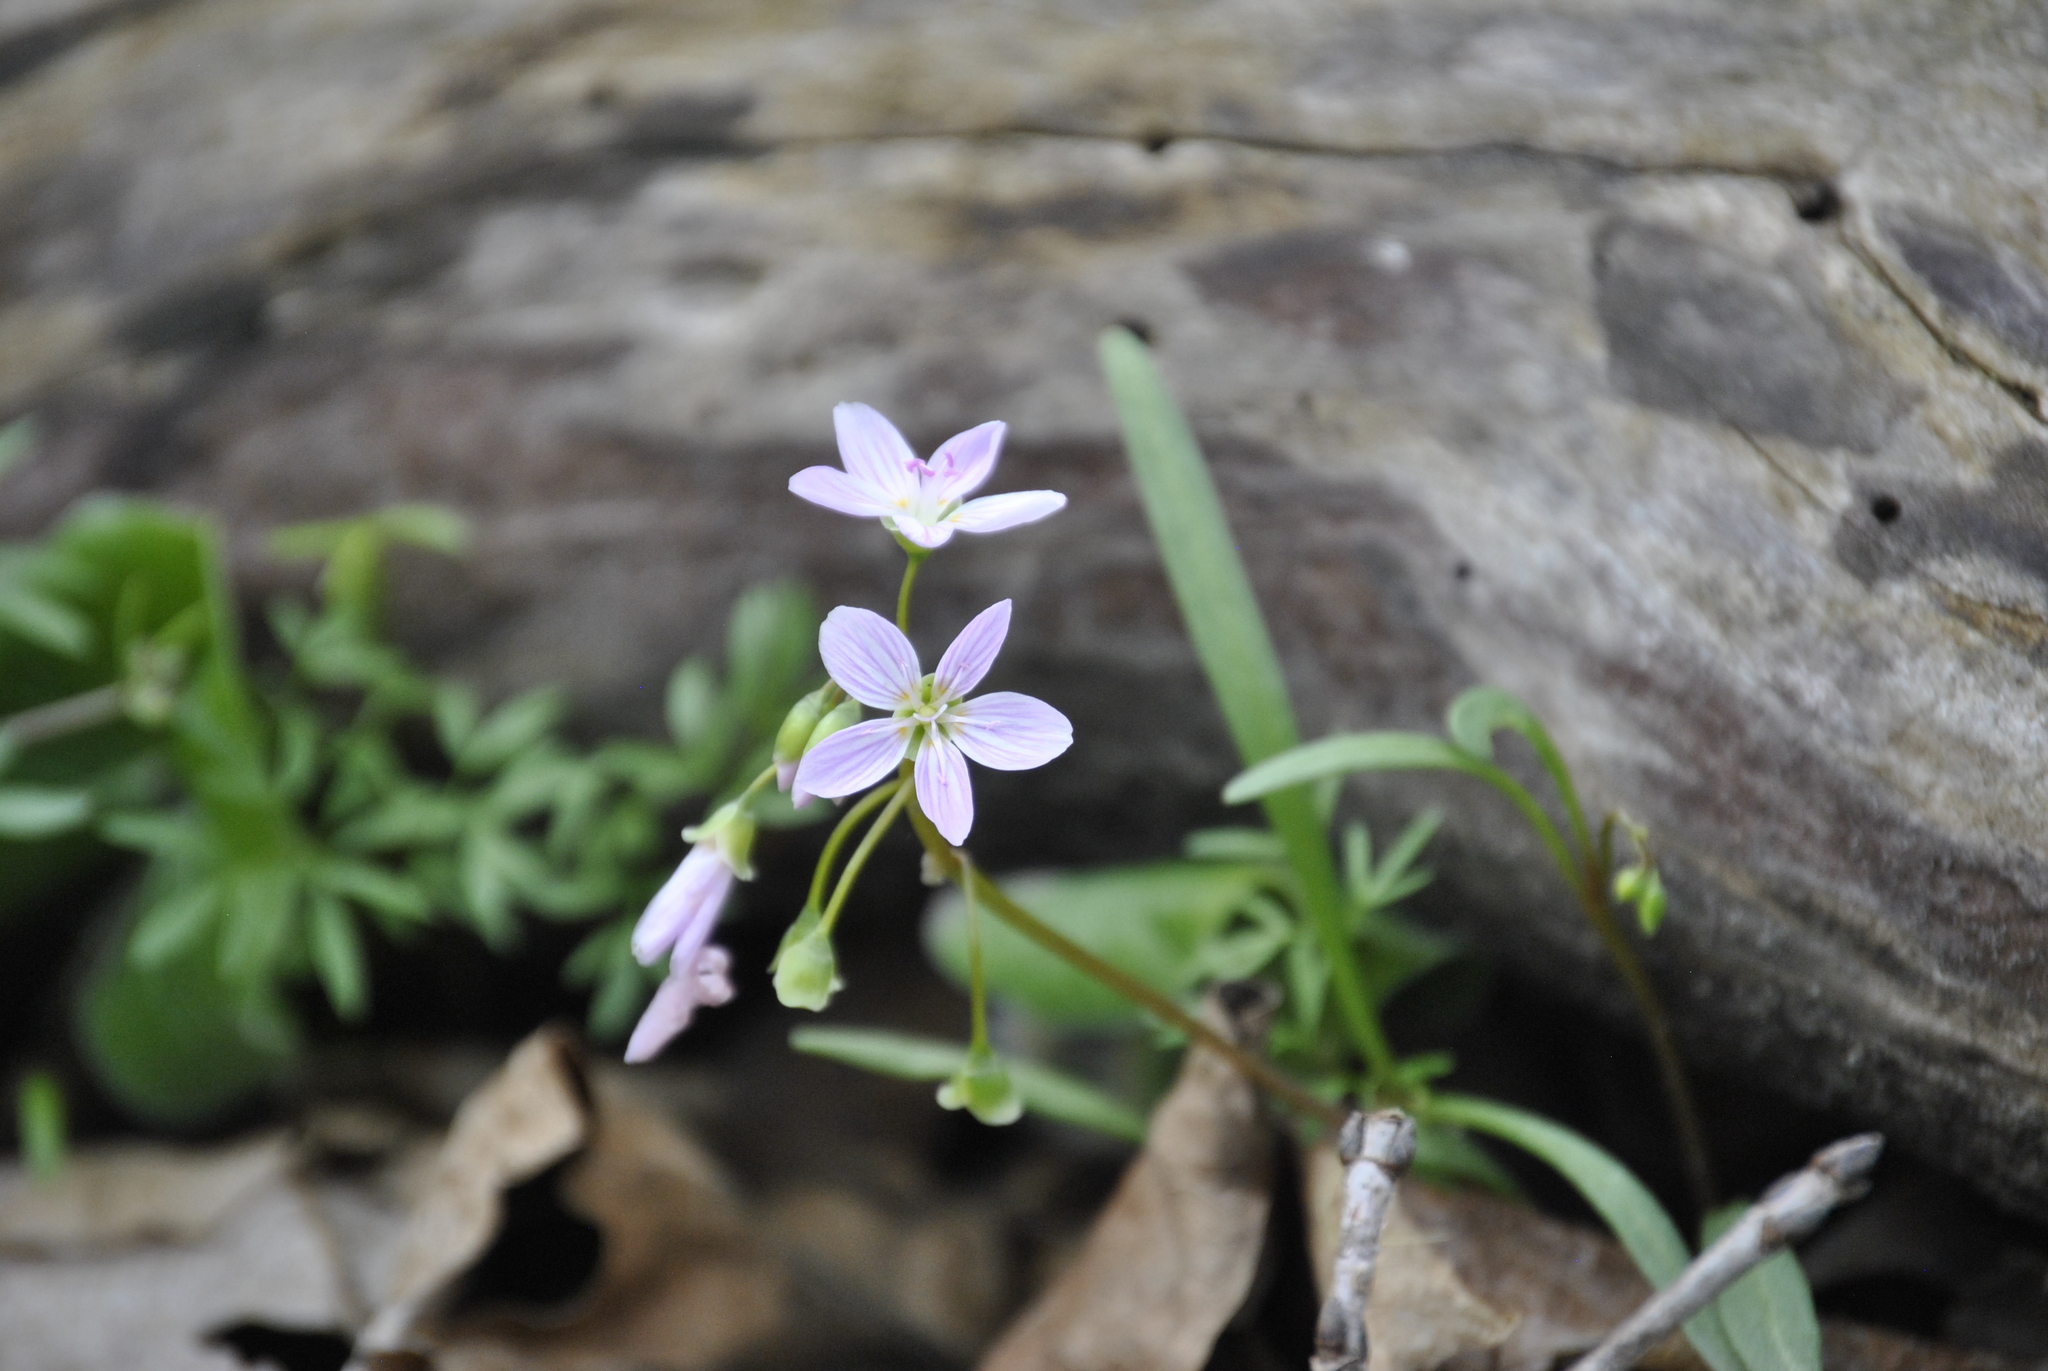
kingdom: Plantae
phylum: Tracheophyta
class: Magnoliopsida
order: Caryophyllales
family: Montiaceae
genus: Claytonia
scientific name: Claytonia virginica
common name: Virginia springbeauty
